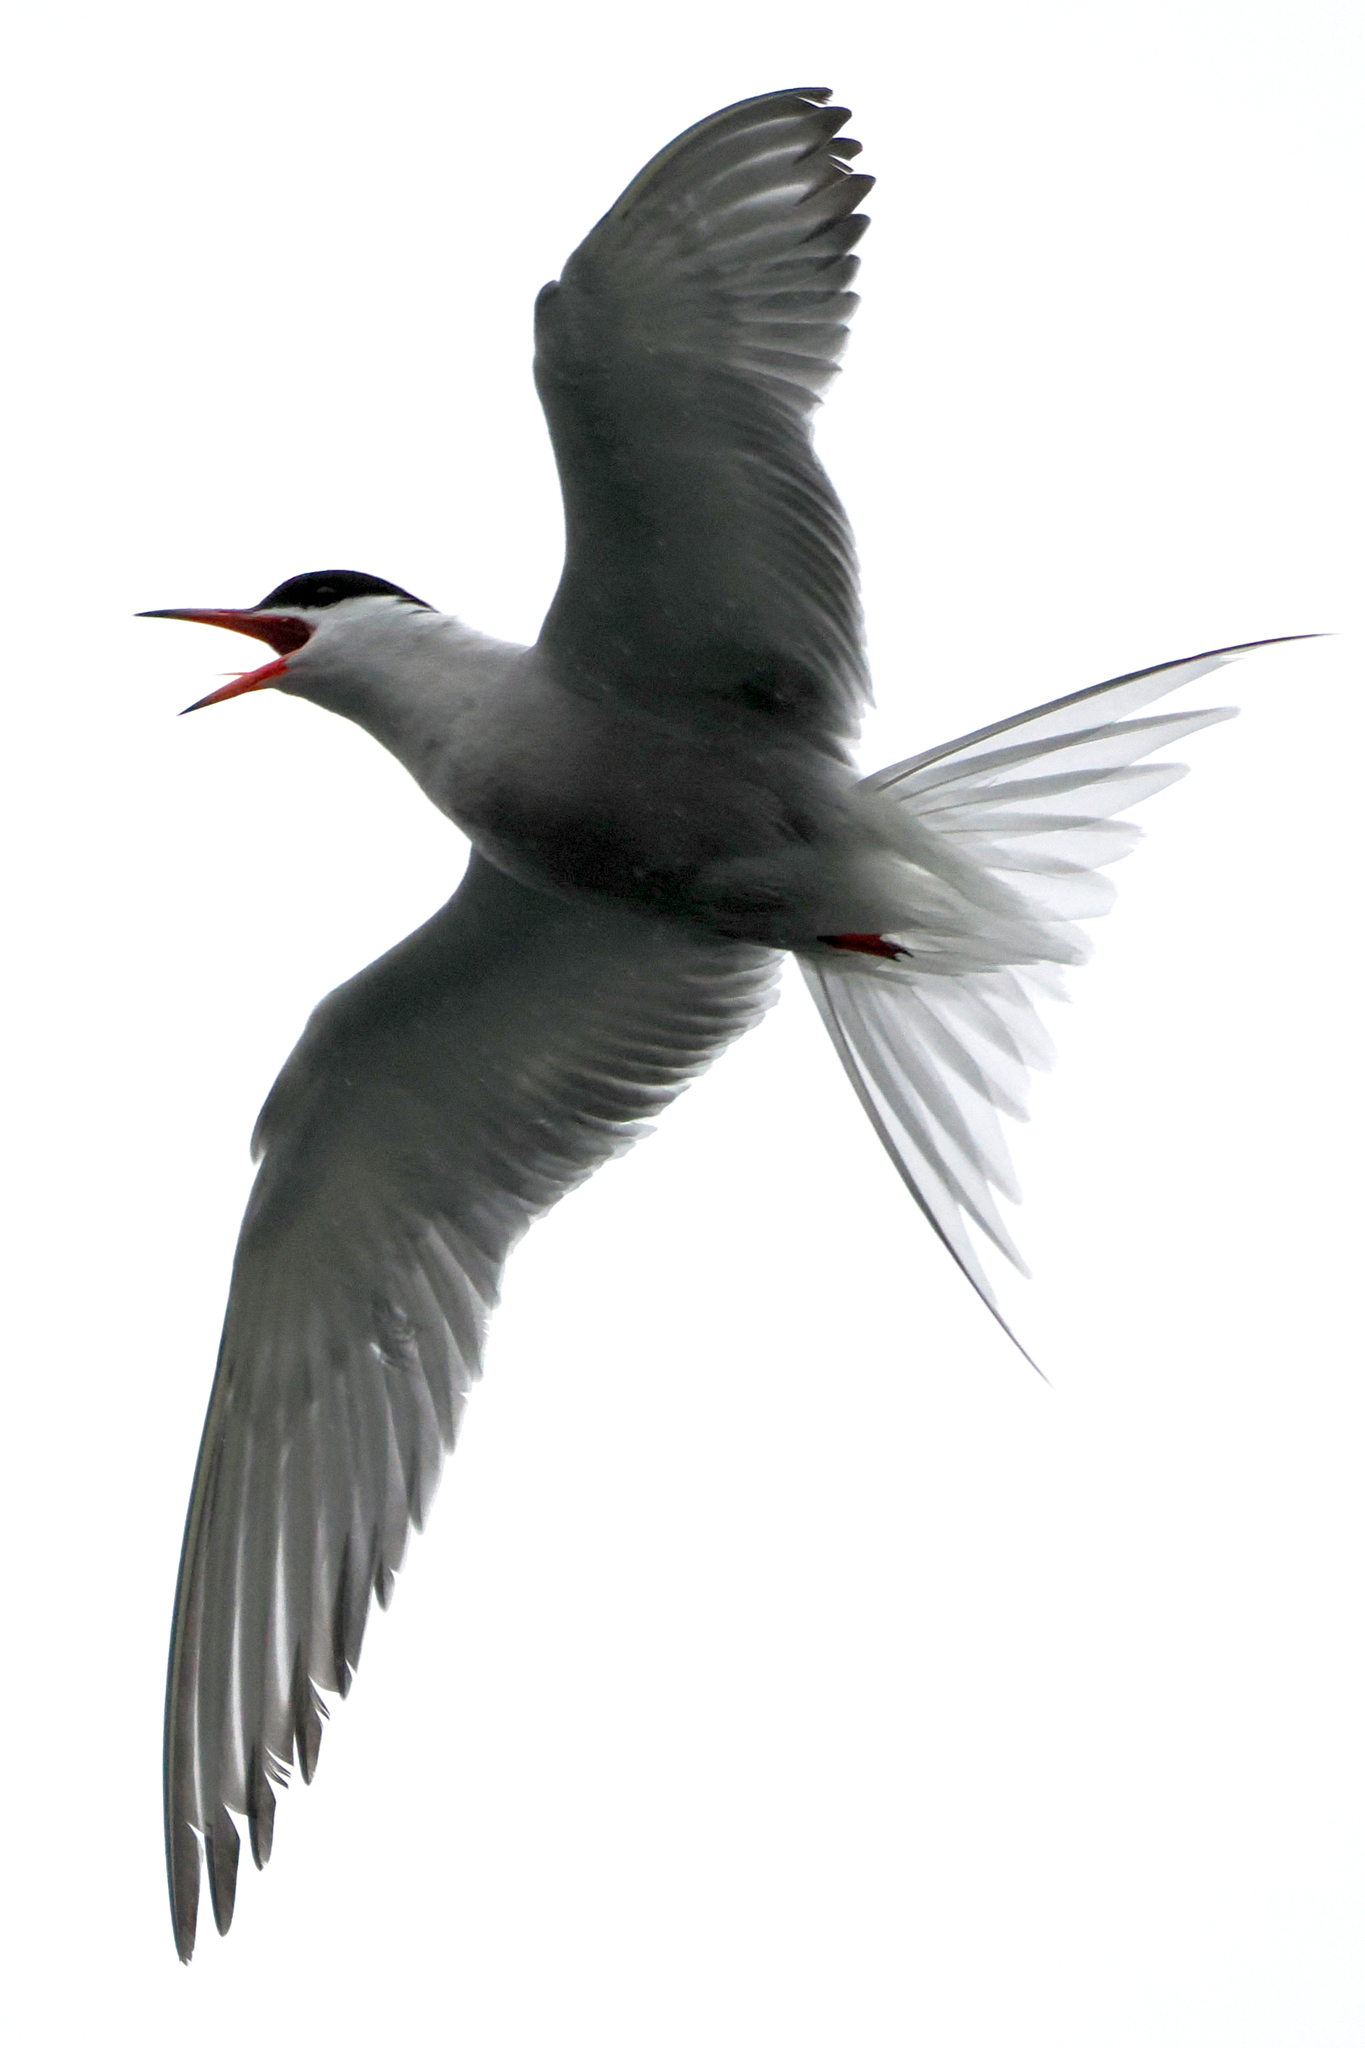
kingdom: Animalia
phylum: Chordata
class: Aves
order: Charadriiformes
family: Laridae
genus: Sterna
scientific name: Sterna hirundo
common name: Common tern
